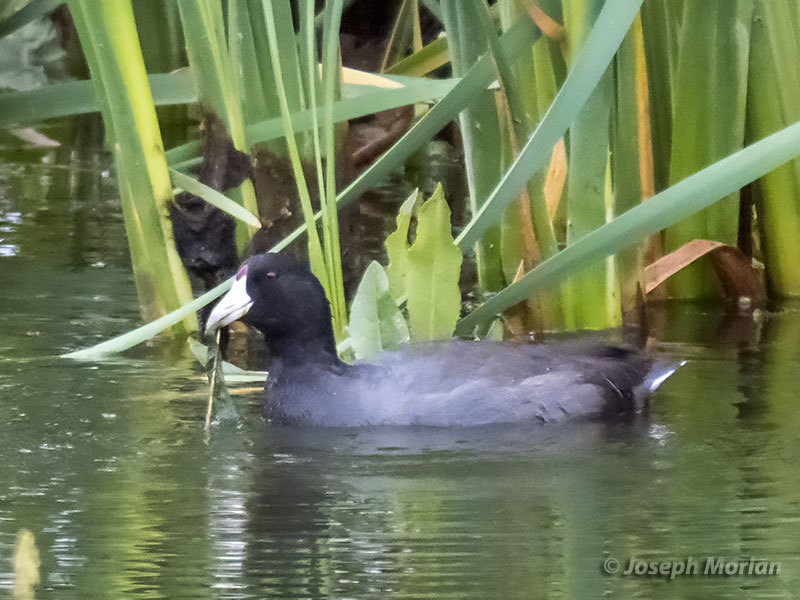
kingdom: Animalia
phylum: Chordata
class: Aves
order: Gruiformes
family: Rallidae
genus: Fulica
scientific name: Fulica americana
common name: American coot
